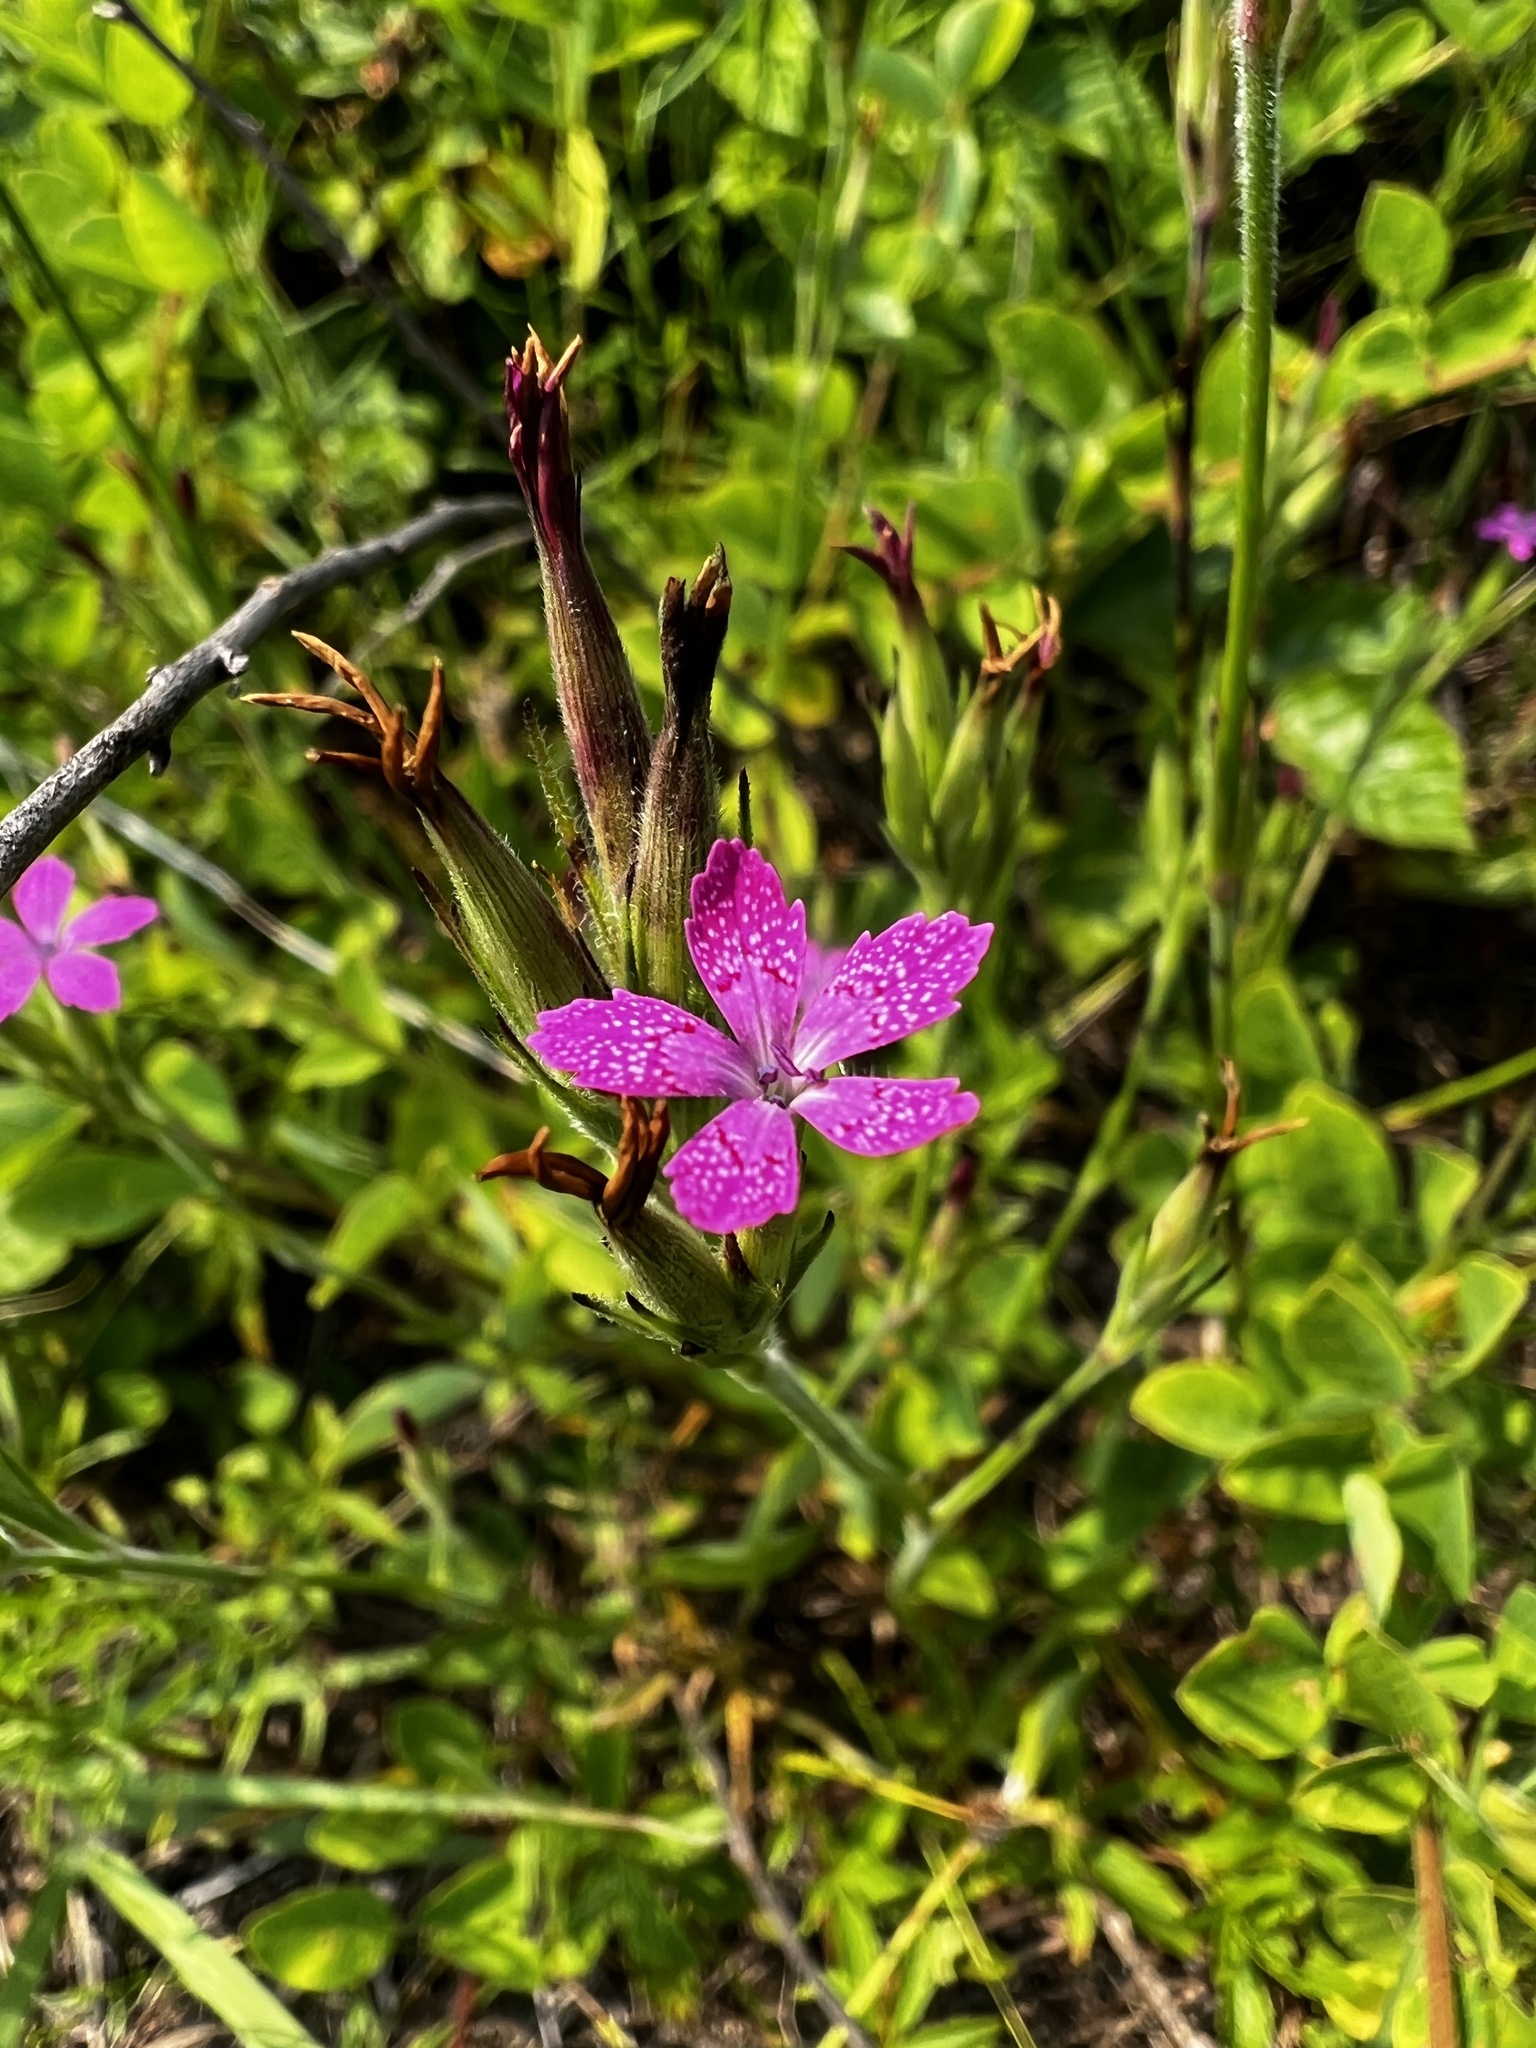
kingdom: Plantae
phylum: Tracheophyta
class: Magnoliopsida
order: Caryophyllales
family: Caryophyllaceae
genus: Dianthus
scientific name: Dianthus armeria
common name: Deptford pink
